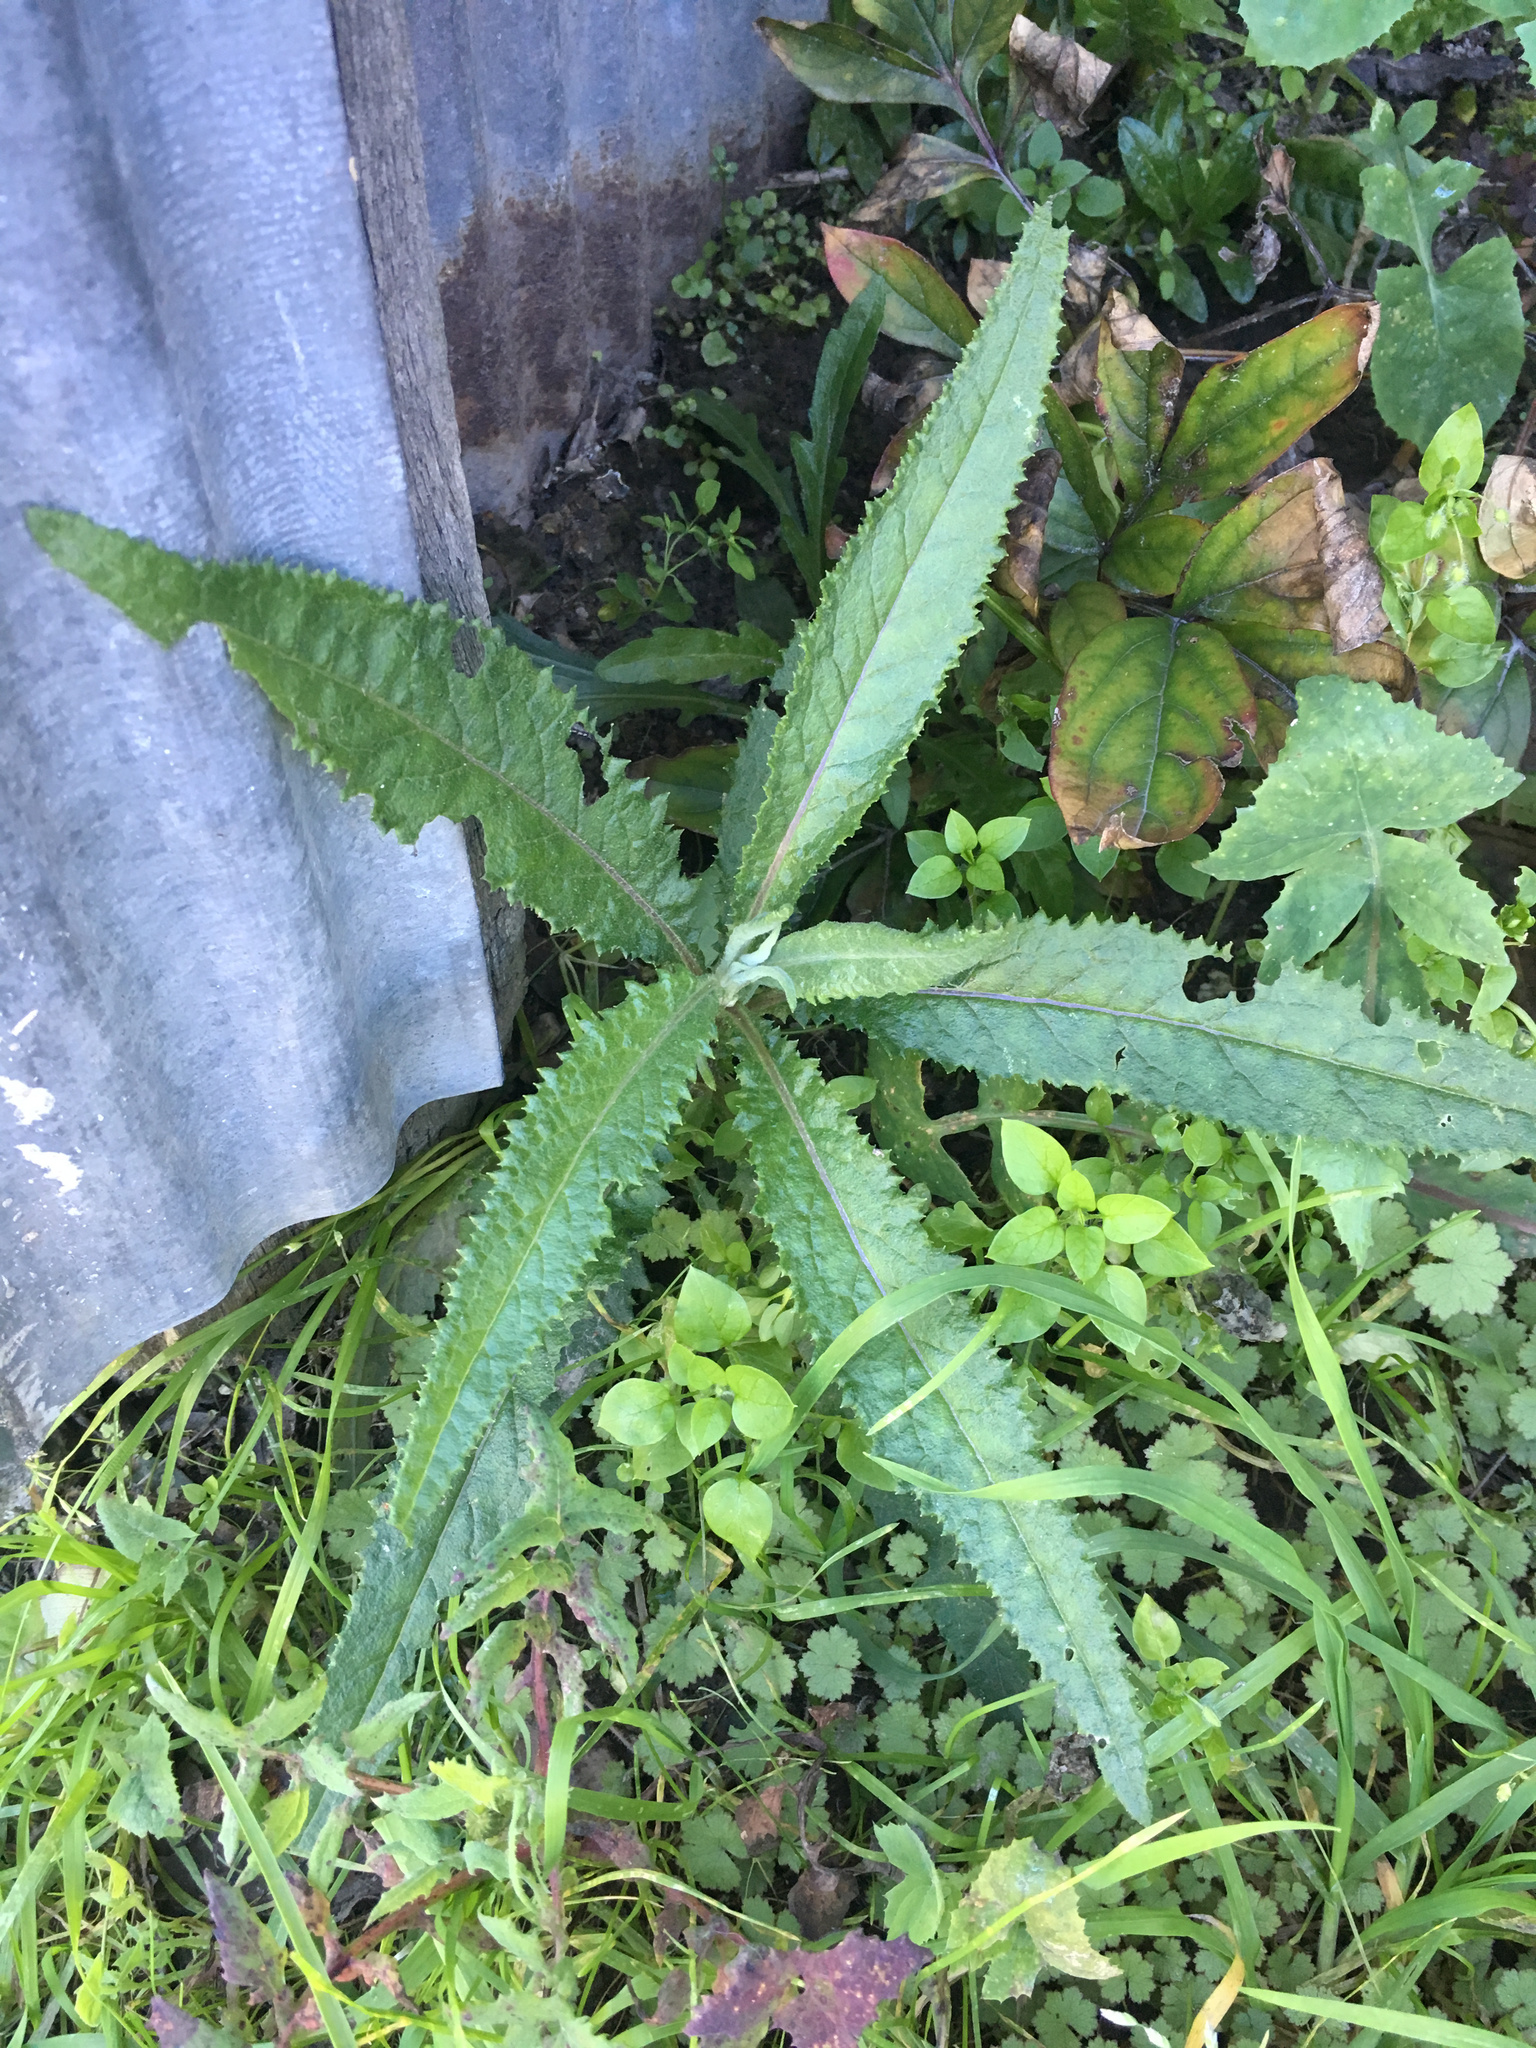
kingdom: Plantae
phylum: Tracheophyta
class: Magnoliopsida
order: Asterales
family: Asteraceae
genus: Senecio
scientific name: Senecio minimus
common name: Toothed fireweed
